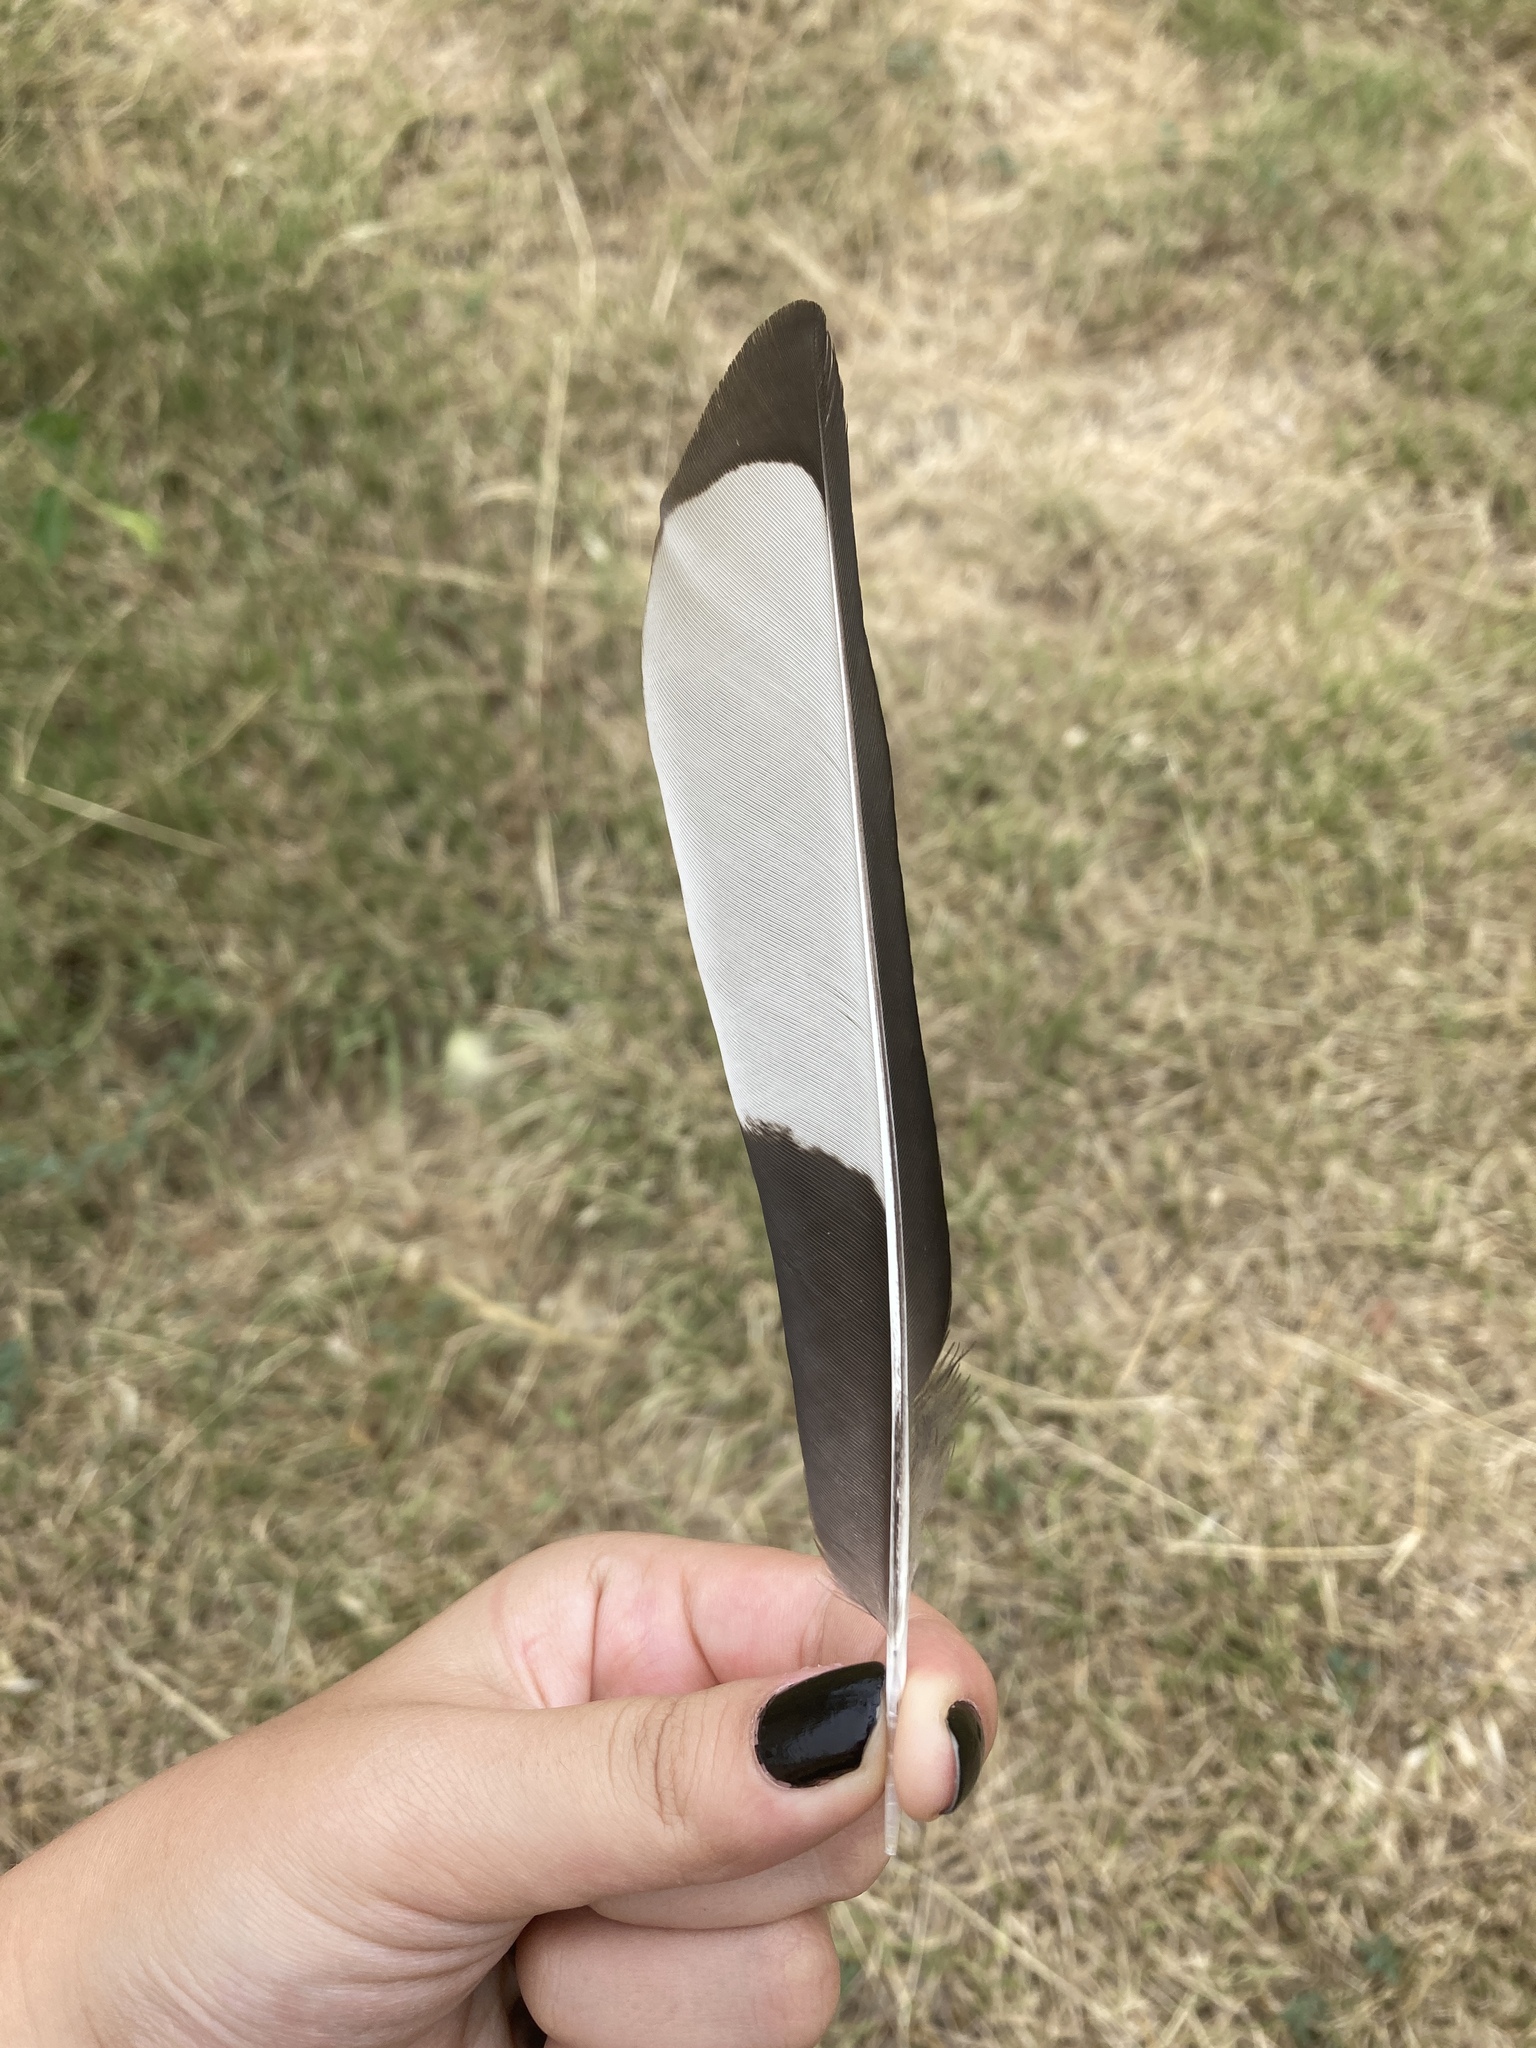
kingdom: Animalia
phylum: Chordata
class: Aves
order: Passeriformes
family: Corvidae
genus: Pica
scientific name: Pica pica
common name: Eurasian magpie
